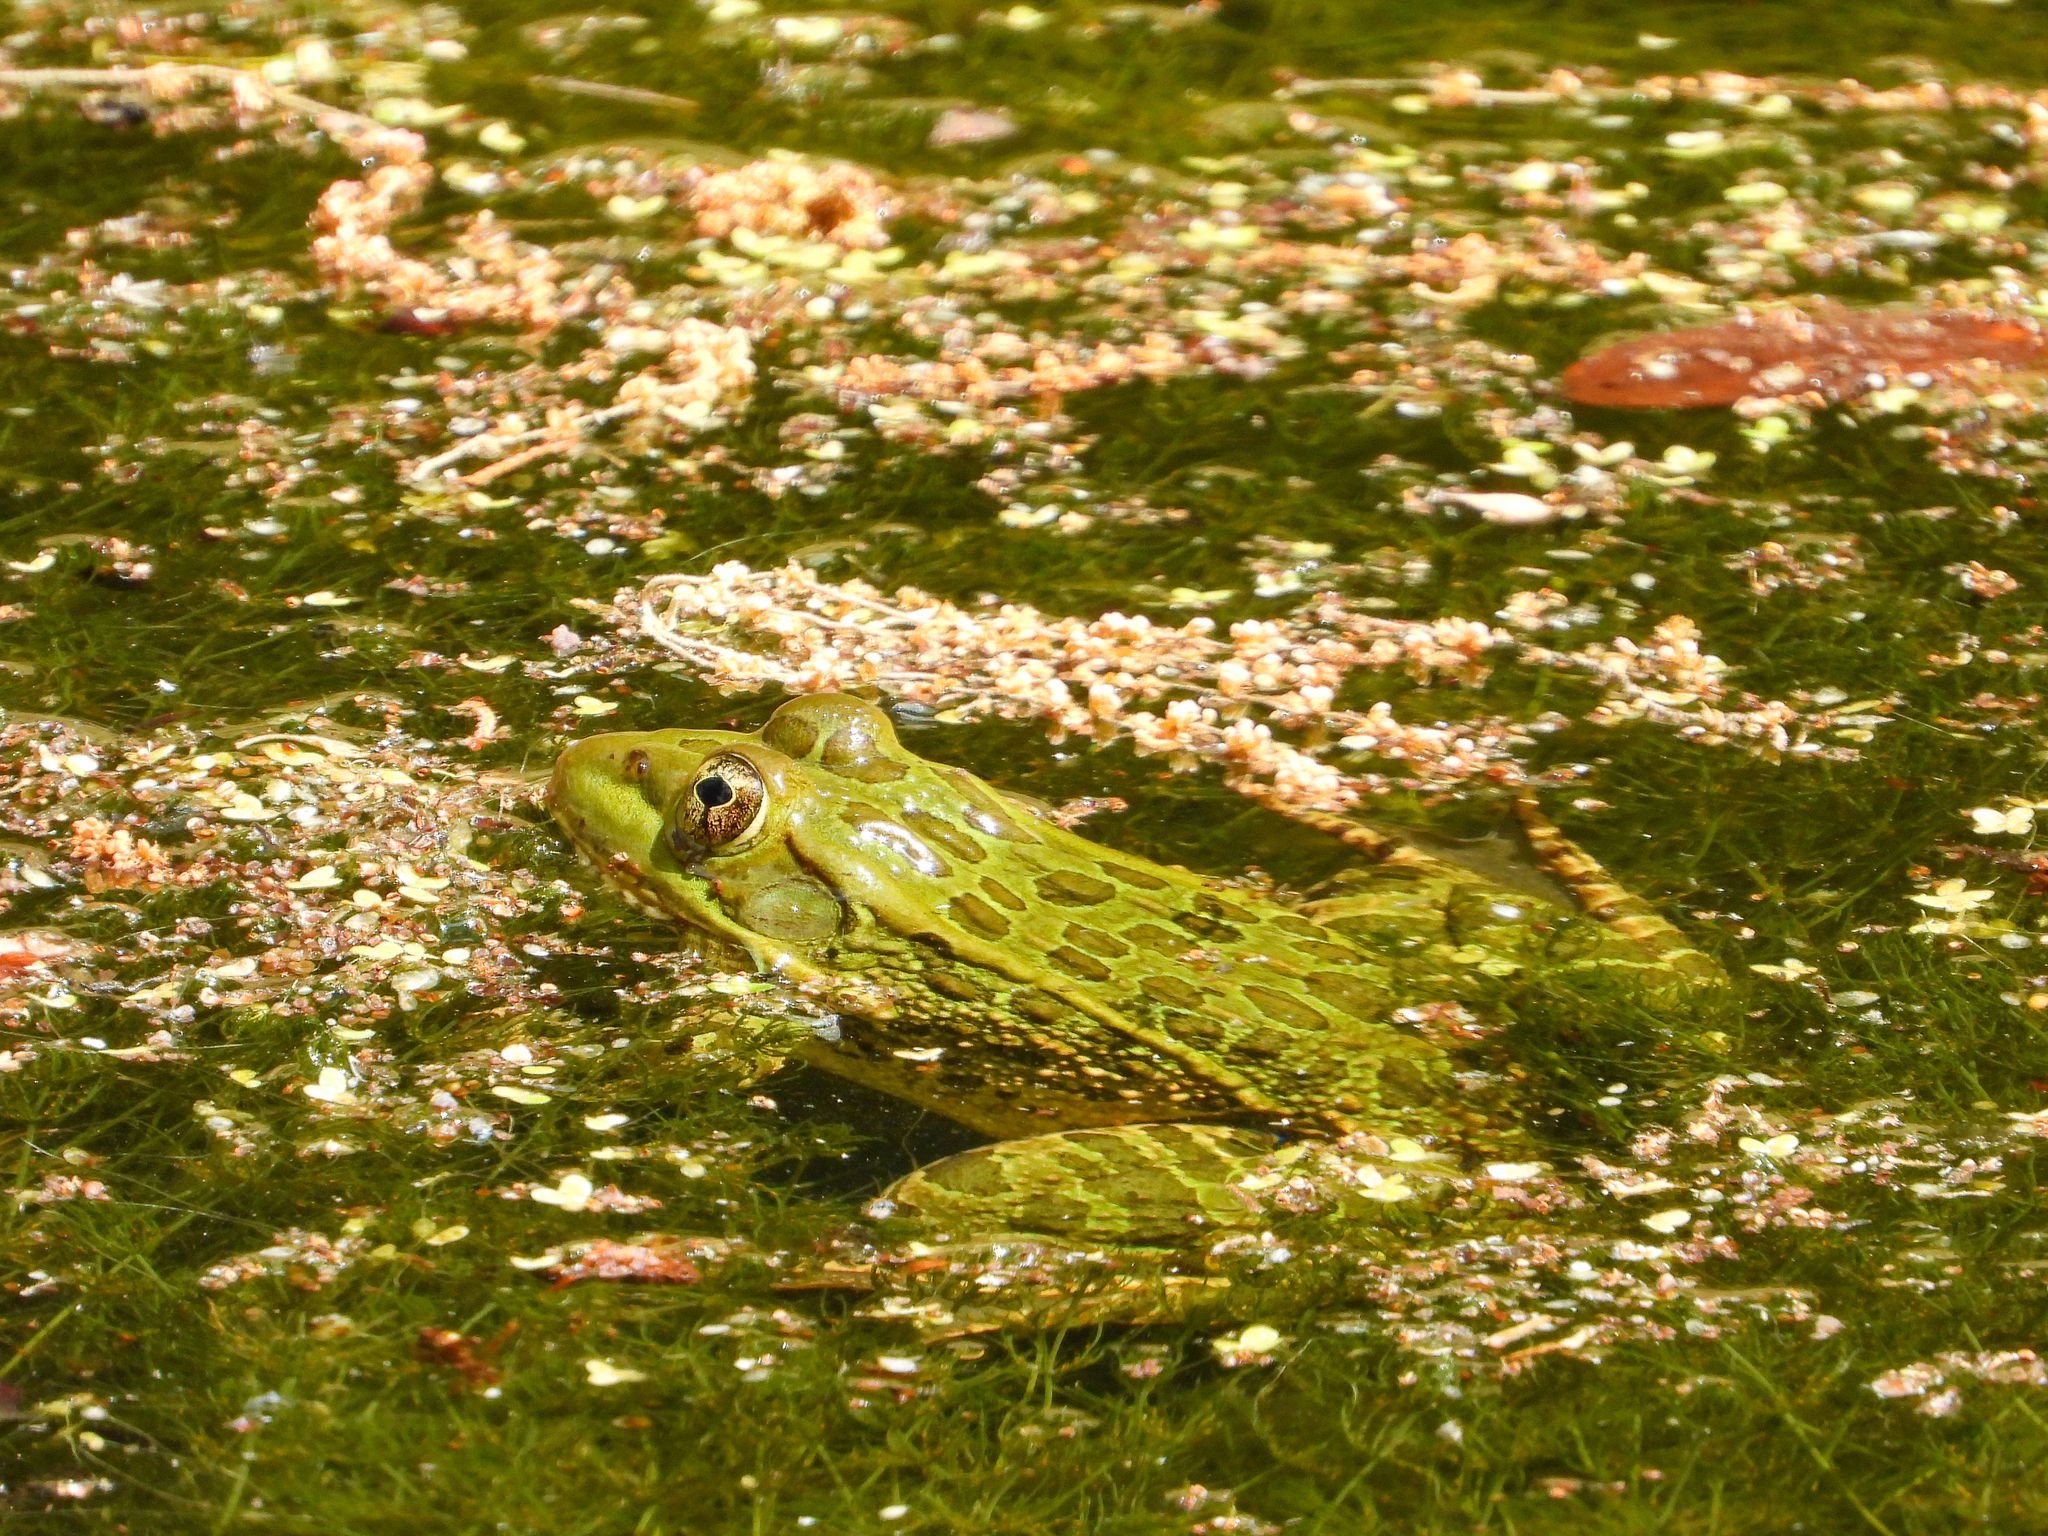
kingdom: Animalia
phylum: Chordata
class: Amphibia
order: Anura
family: Ranidae
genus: Lithobates
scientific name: Lithobates chiricahuensis
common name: Chiricahua leopard frog
